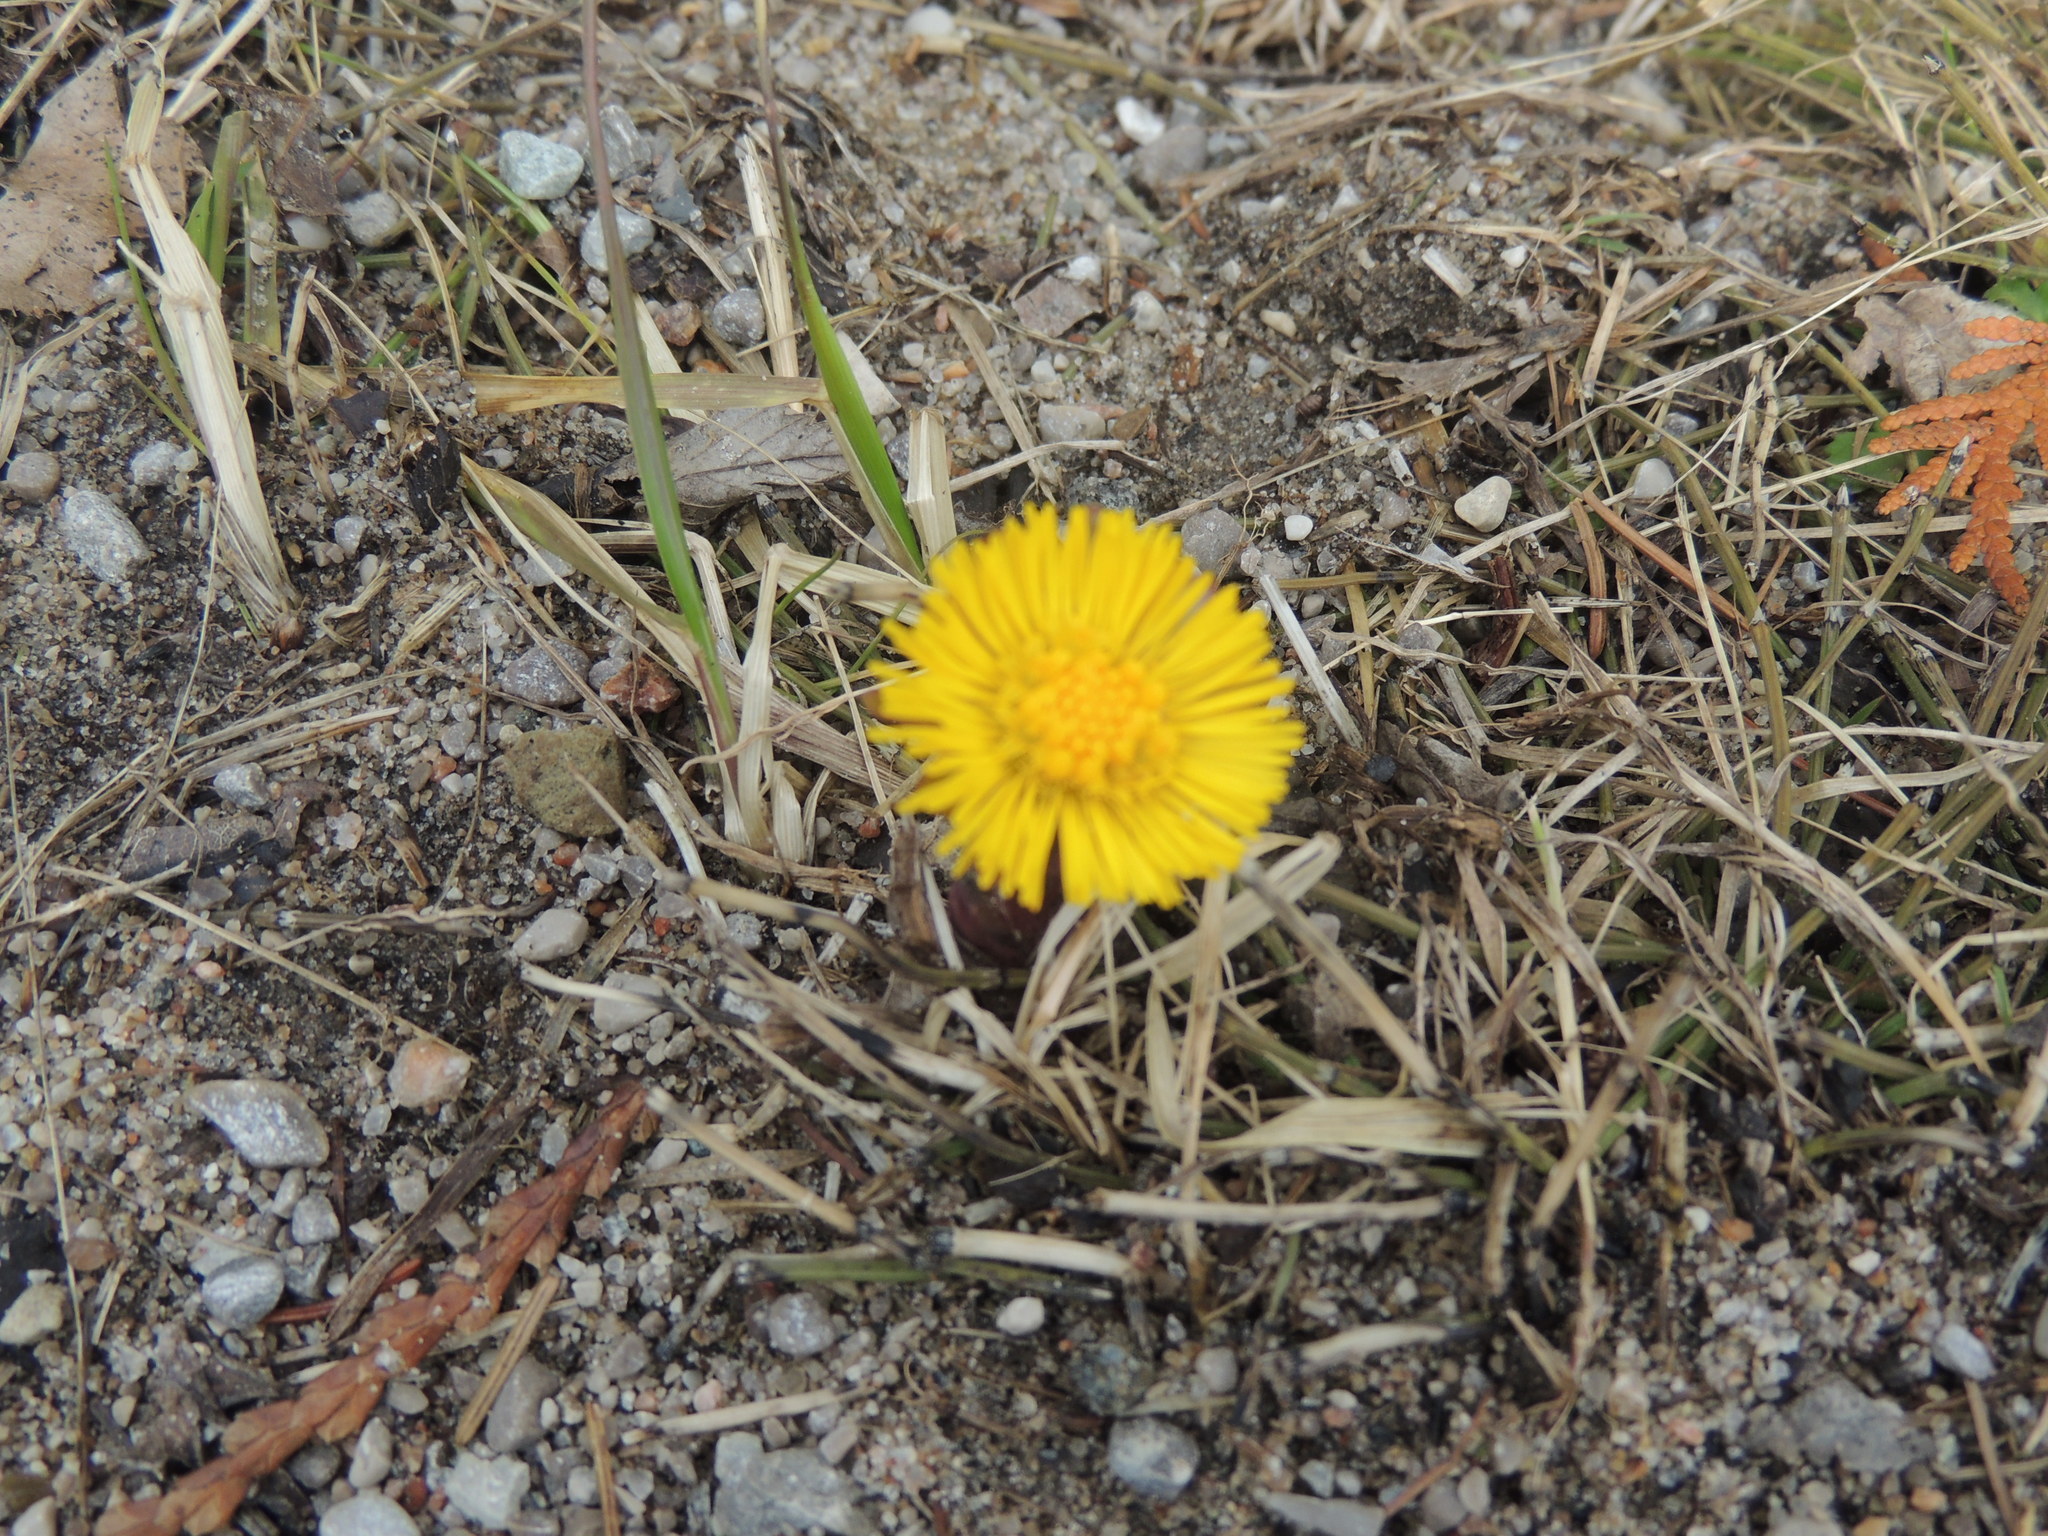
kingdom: Plantae
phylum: Tracheophyta
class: Magnoliopsida
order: Asterales
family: Asteraceae
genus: Tussilago
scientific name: Tussilago farfara
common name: Coltsfoot
